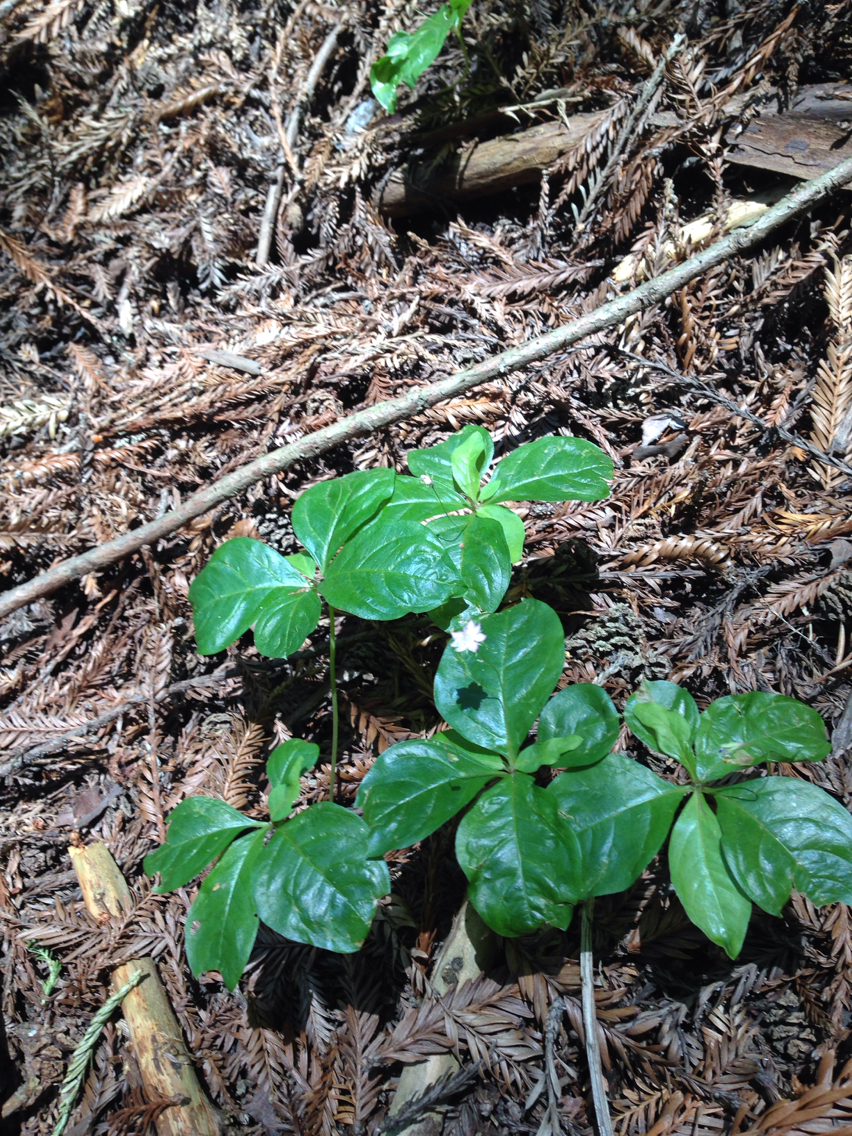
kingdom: Plantae
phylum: Tracheophyta
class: Magnoliopsida
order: Ericales
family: Primulaceae
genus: Lysimachia
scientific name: Lysimachia latifolia
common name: Pacific starflower
